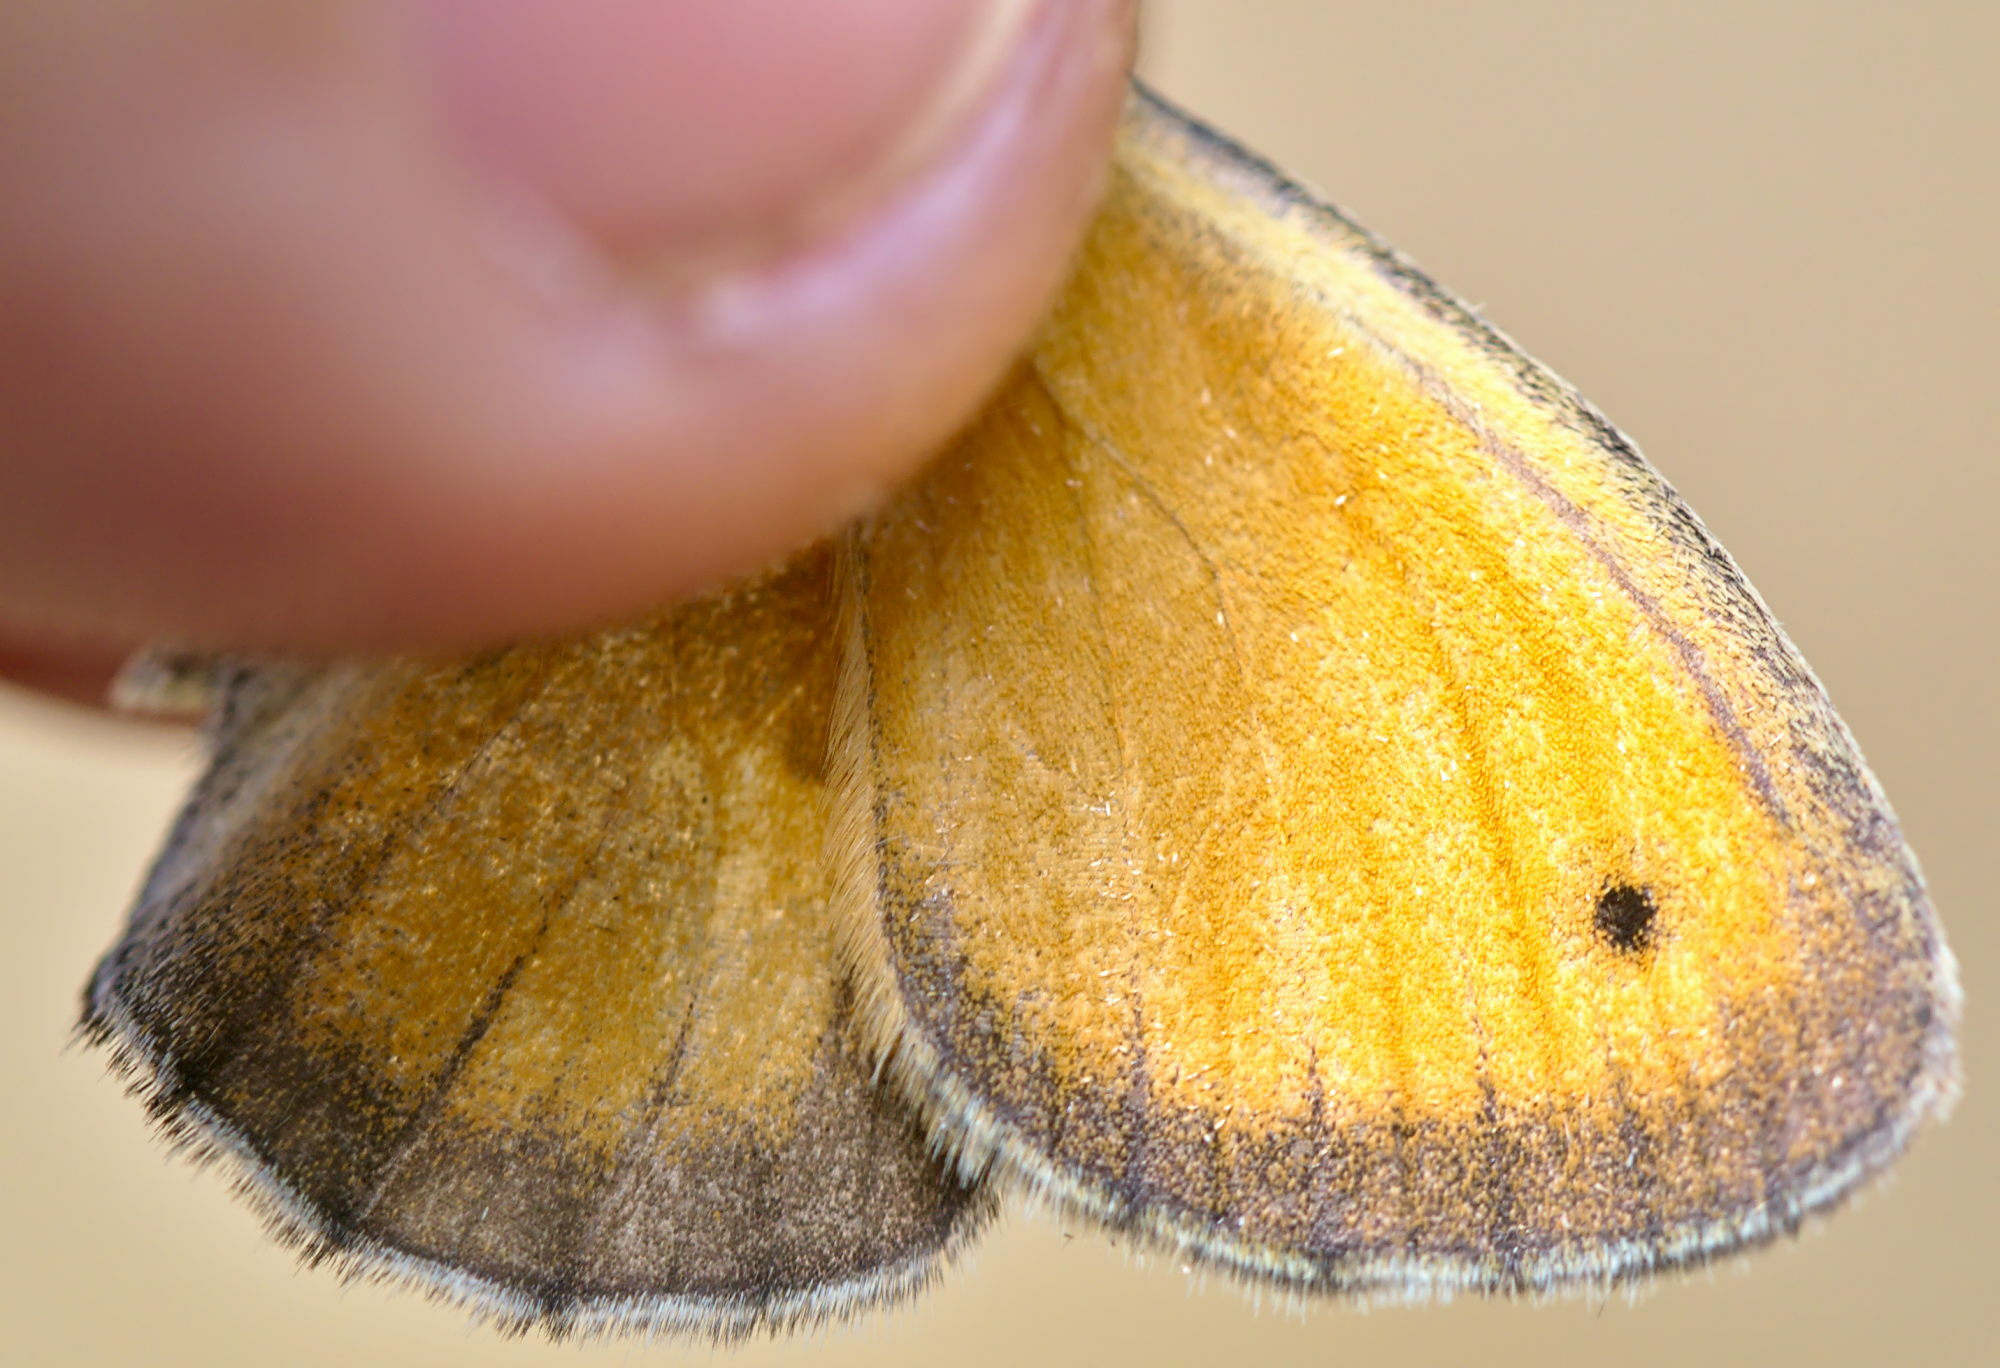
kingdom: Animalia
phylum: Arthropoda
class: Insecta
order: Lepidoptera
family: Nymphalidae
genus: Coenonympha
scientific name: Coenonympha pamphilus
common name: Small heath
